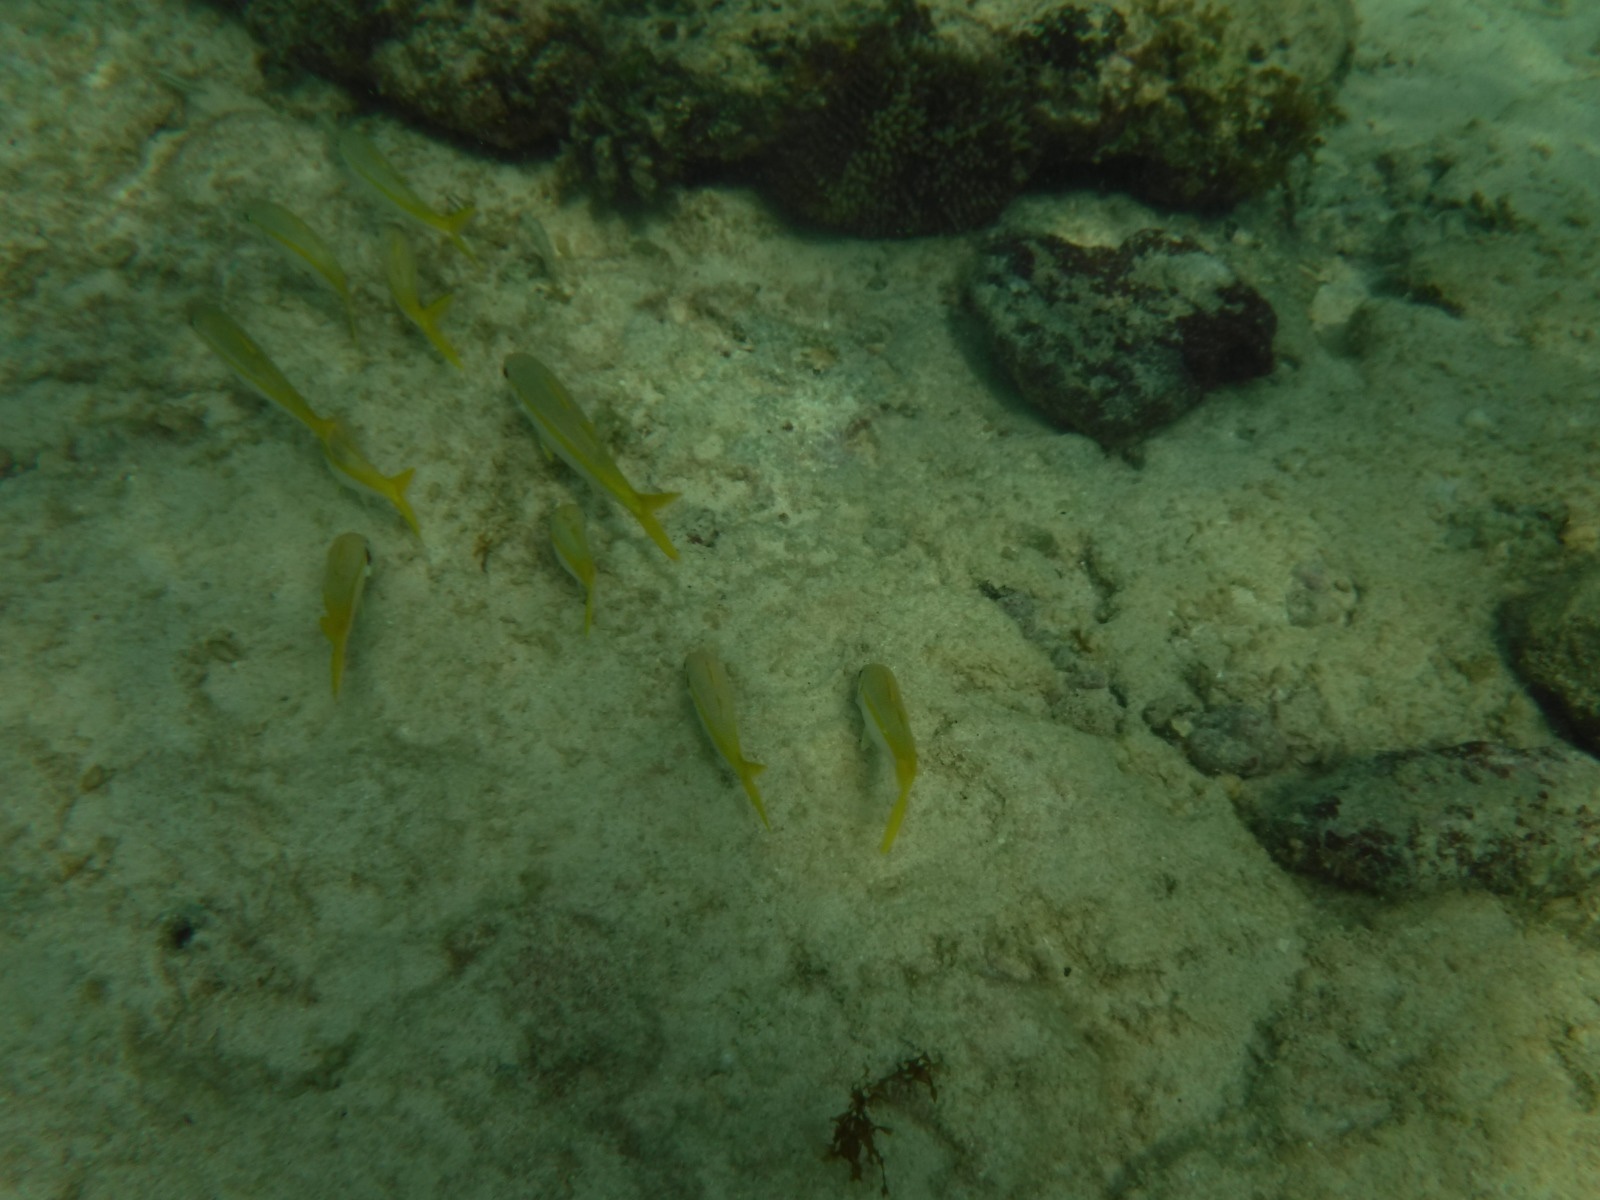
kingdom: Animalia
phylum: Chordata
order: Perciformes
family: Mullidae
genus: Mulloidichthys
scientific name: Mulloidichthys martinicus
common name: Yellow goatfish
